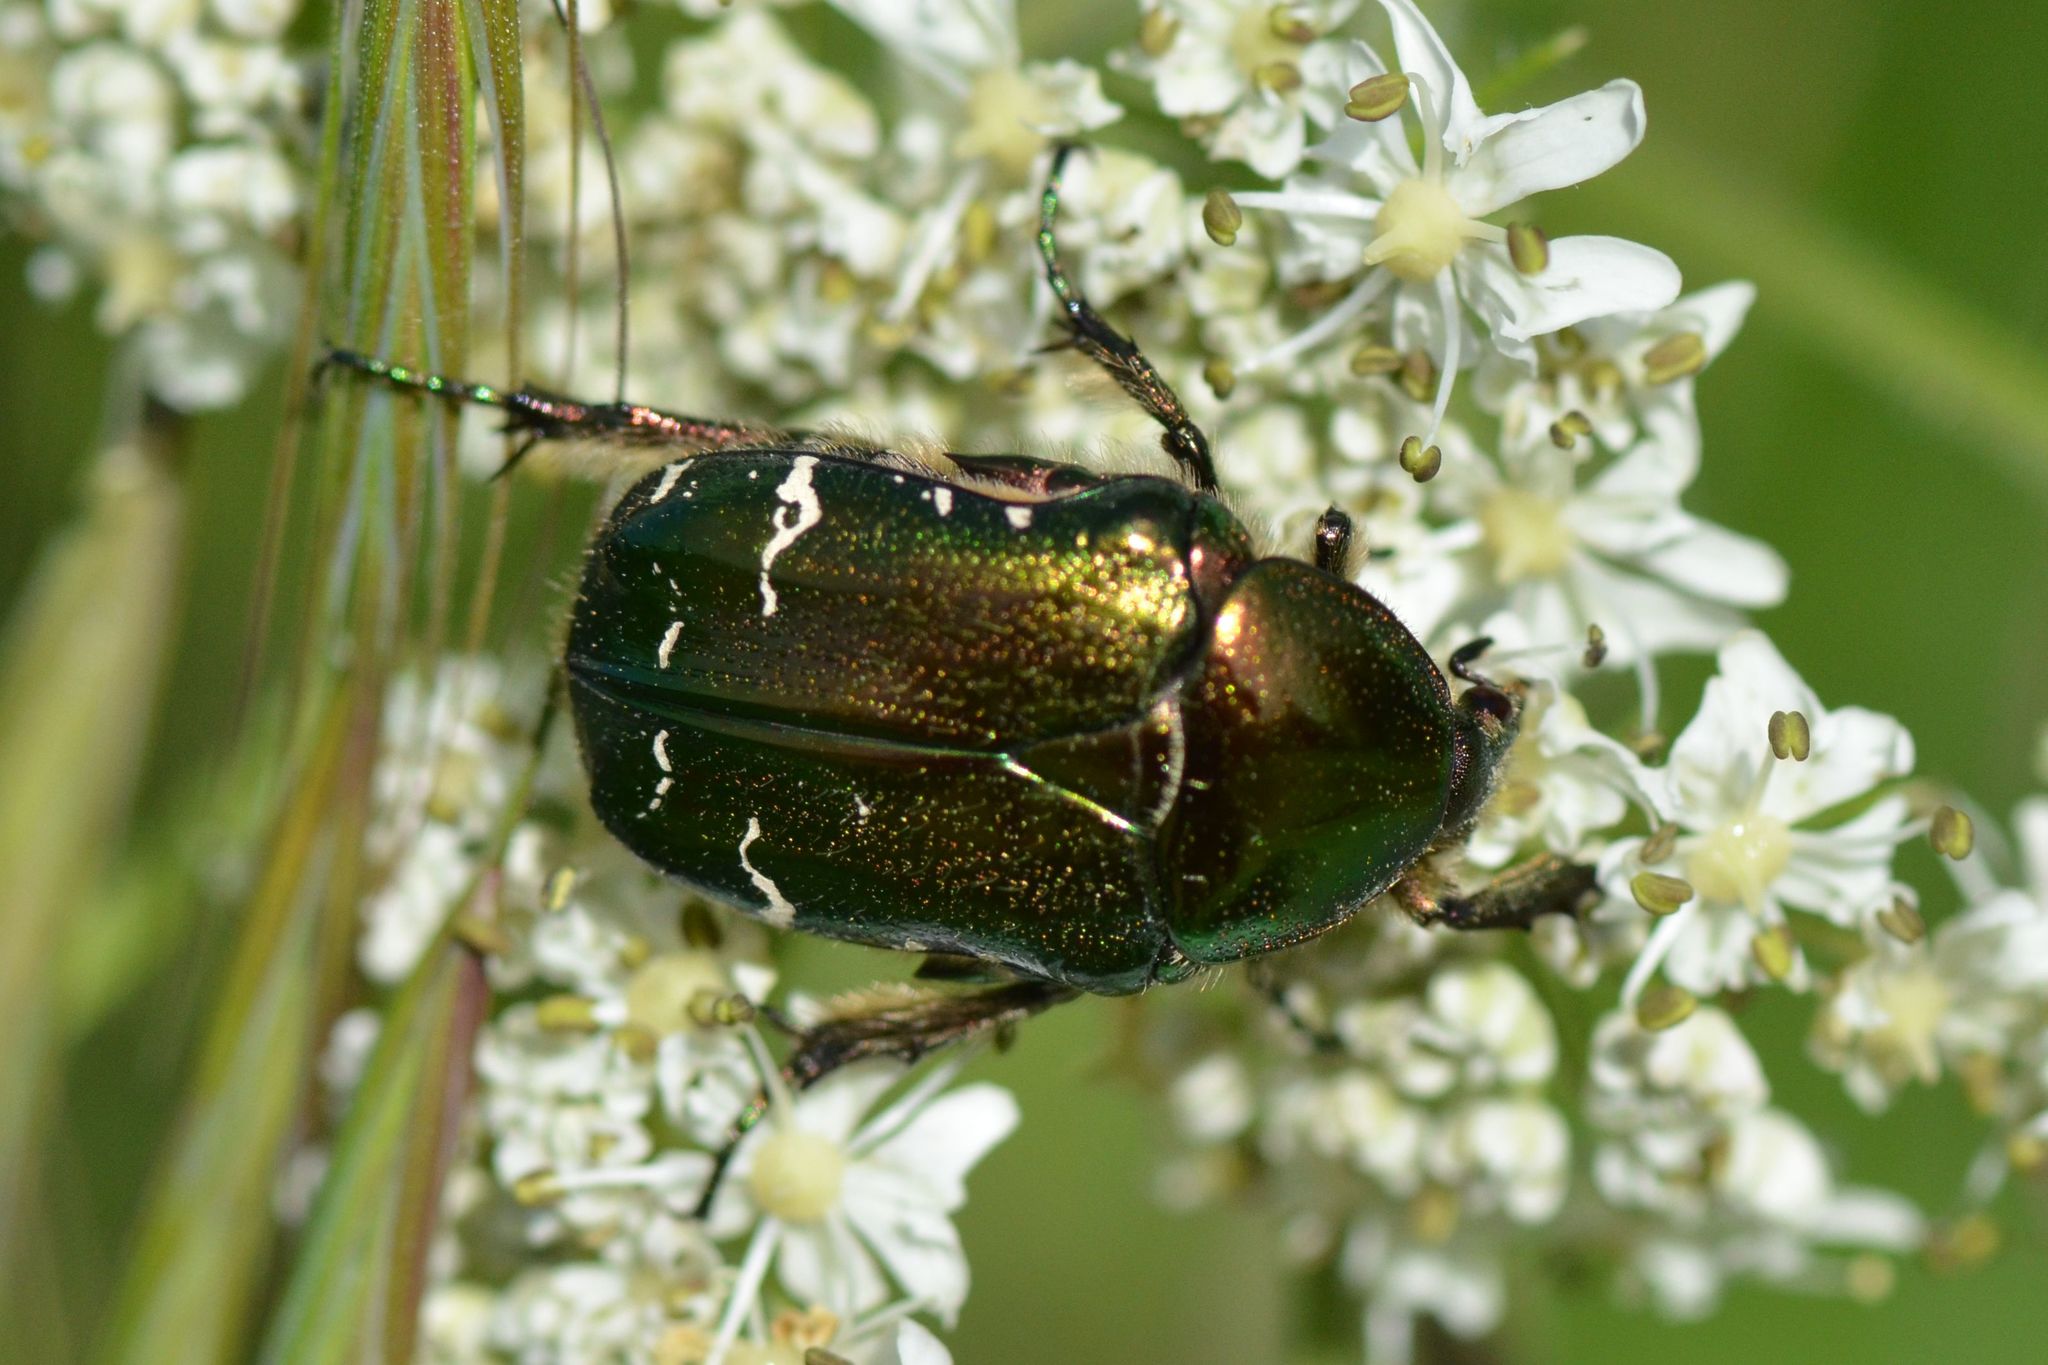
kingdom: Animalia
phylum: Arthropoda
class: Insecta
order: Coleoptera
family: Scarabaeidae
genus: Cetonia
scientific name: Cetonia aurata
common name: Rose chafer
